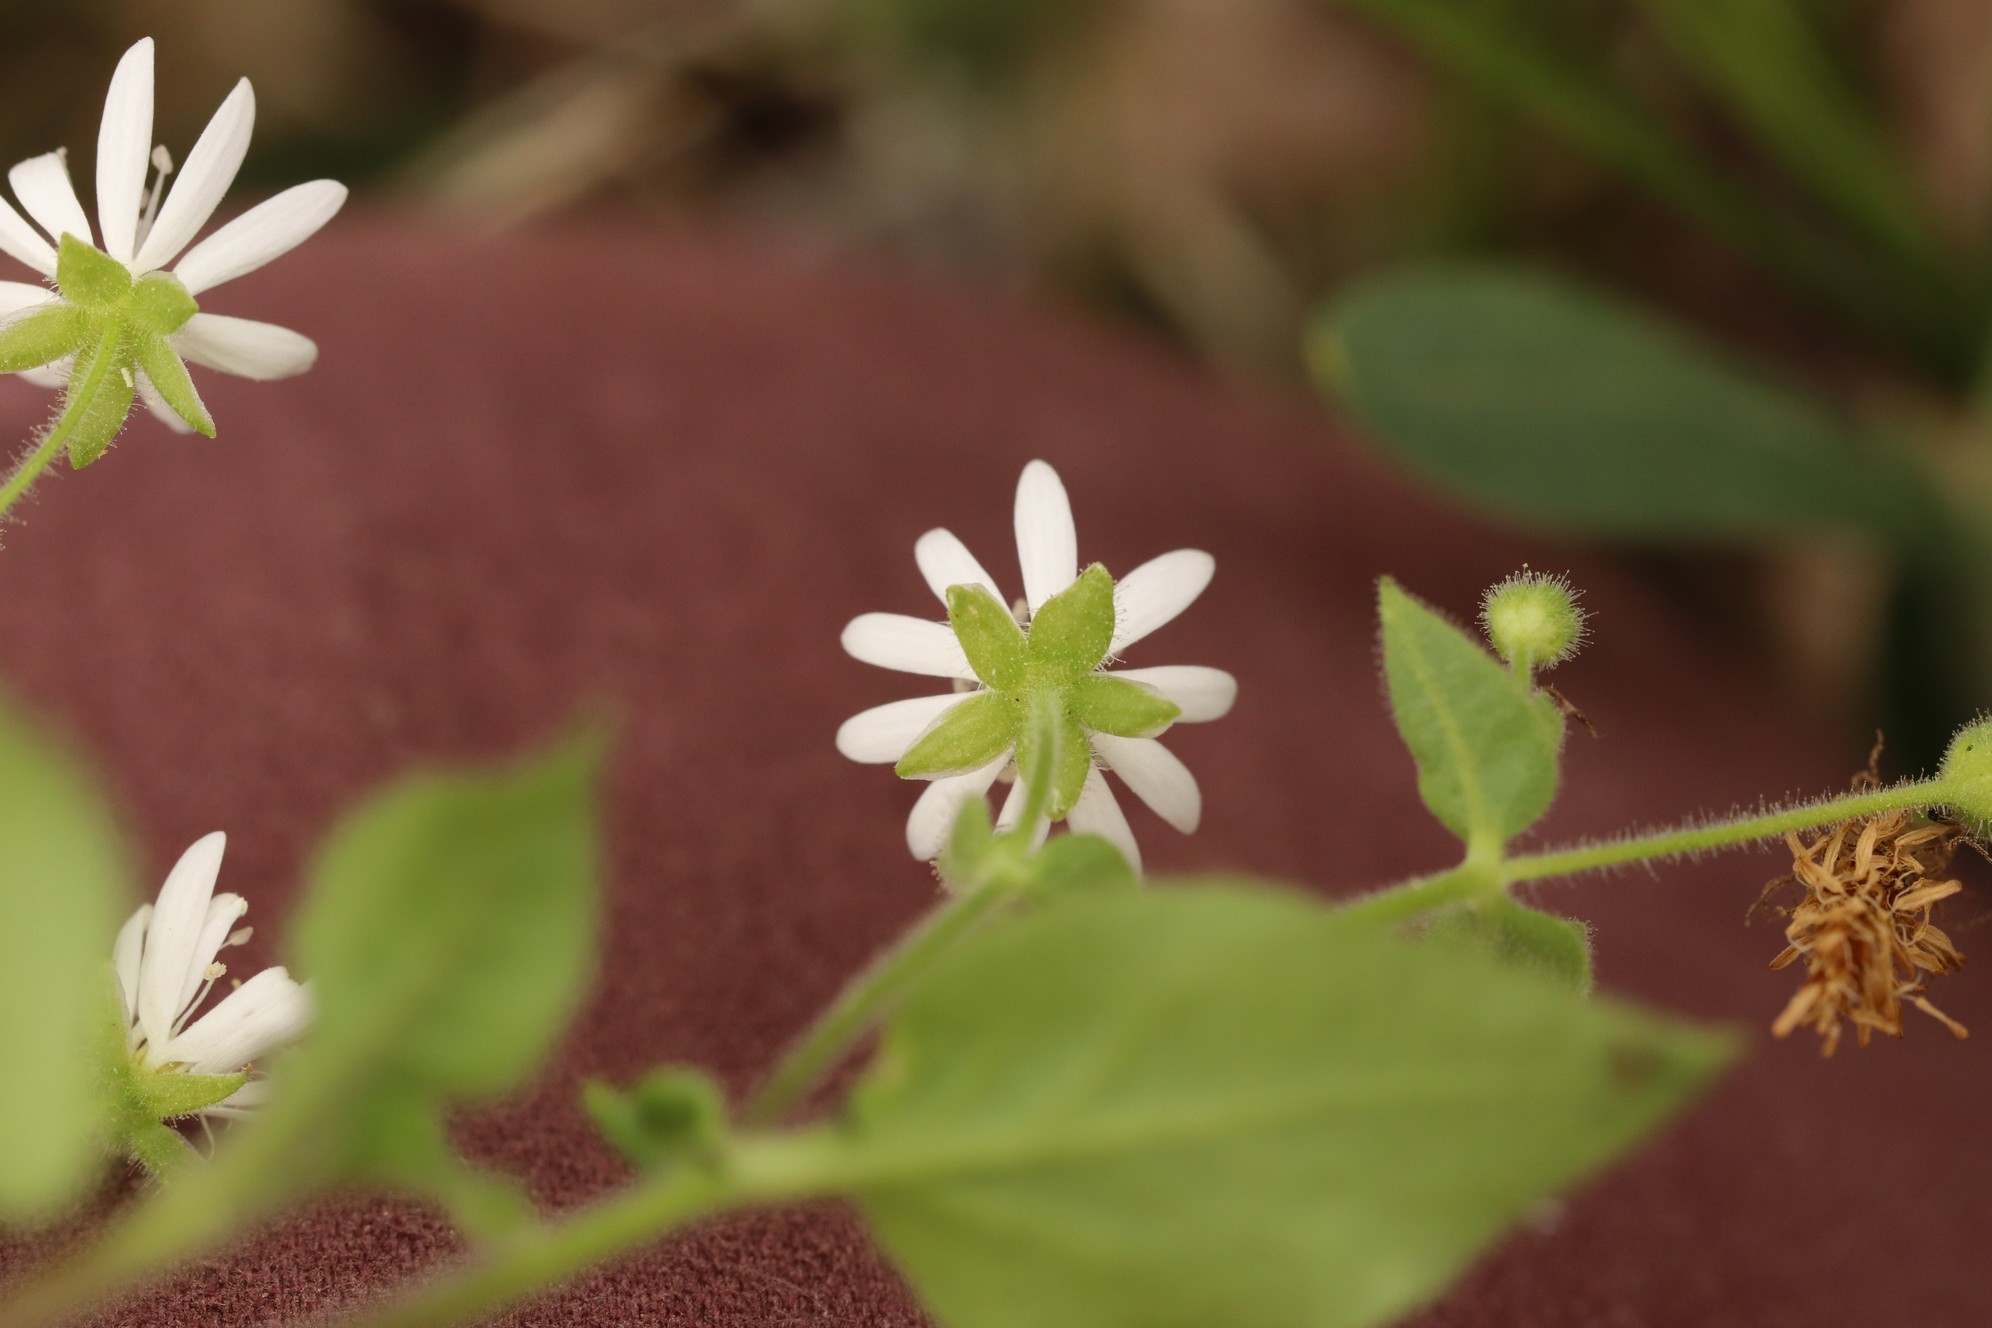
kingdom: Plantae
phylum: Tracheophyta
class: Magnoliopsida
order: Caryophyllales
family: Caryophyllaceae
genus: Stellaria
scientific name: Stellaria bungeana
